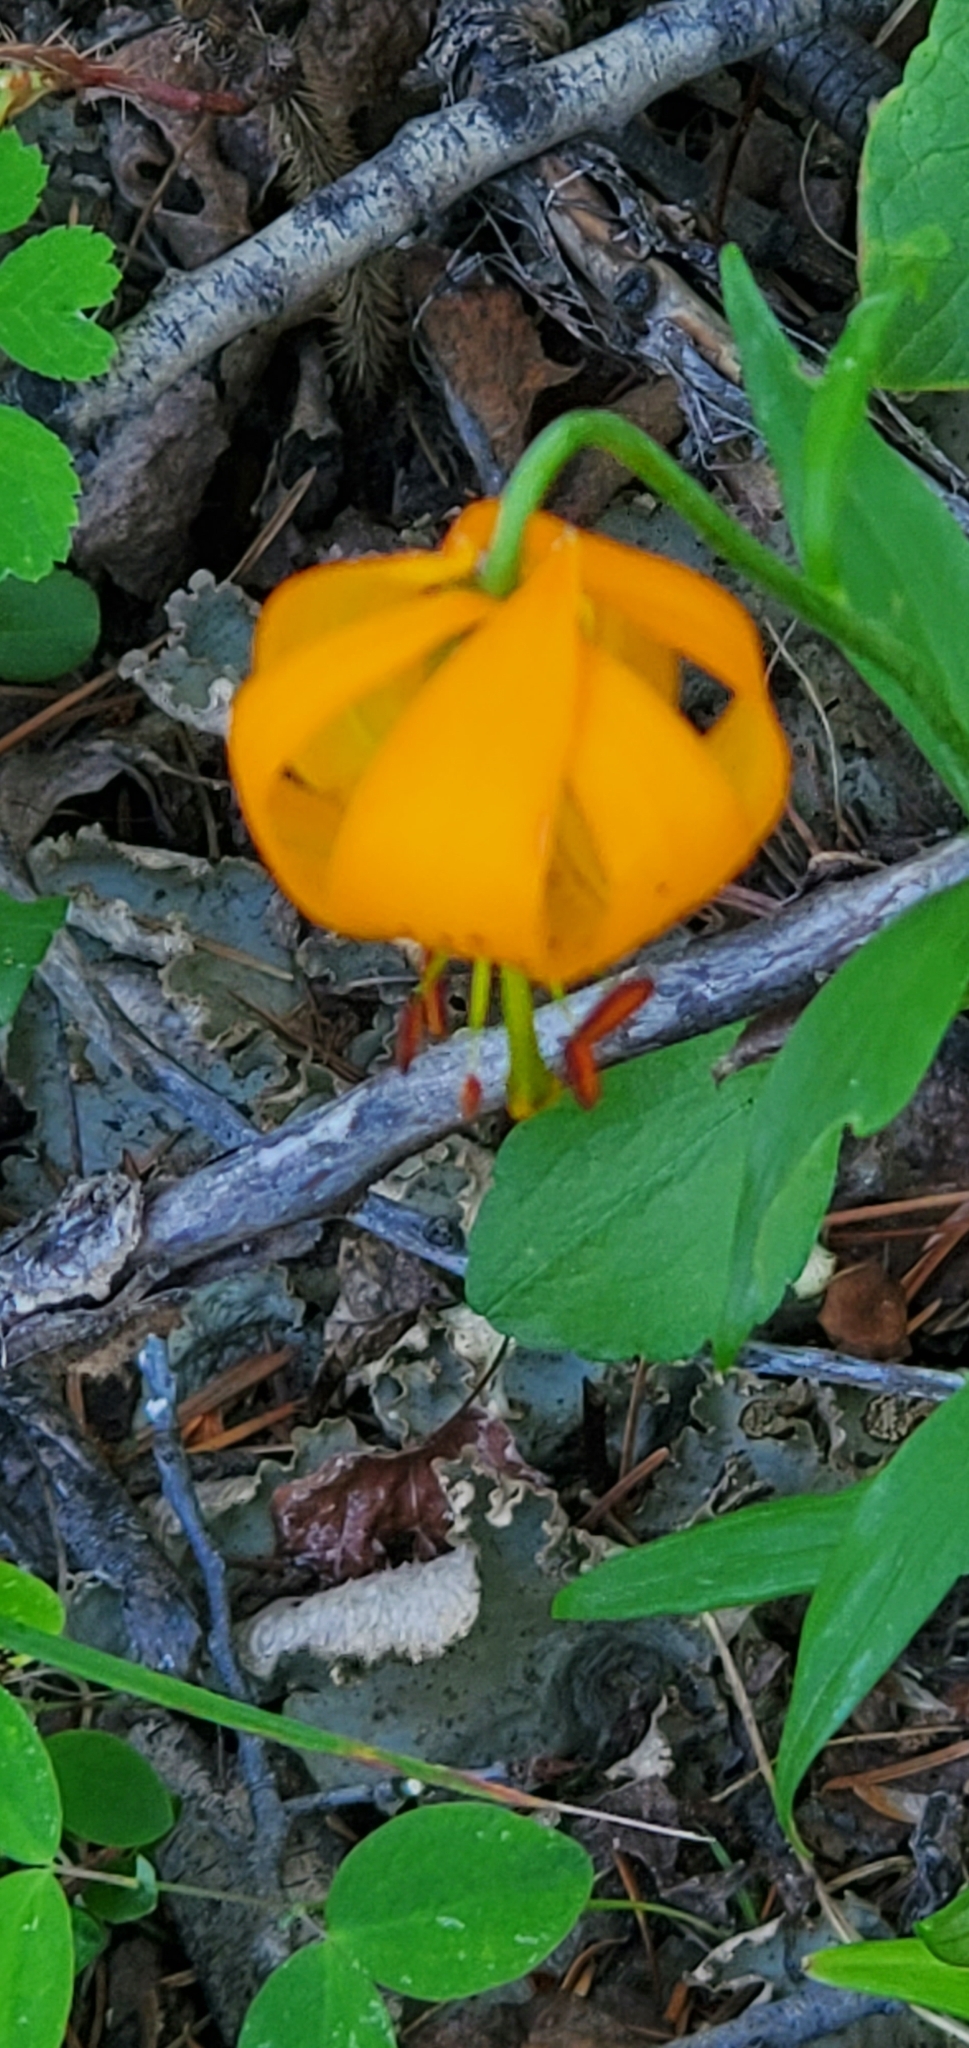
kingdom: Plantae
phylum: Tracheophyta
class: Liliopsida
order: Liliales
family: Liliaceae
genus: Lilium
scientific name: Lilium columbianum
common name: Columbia lily
